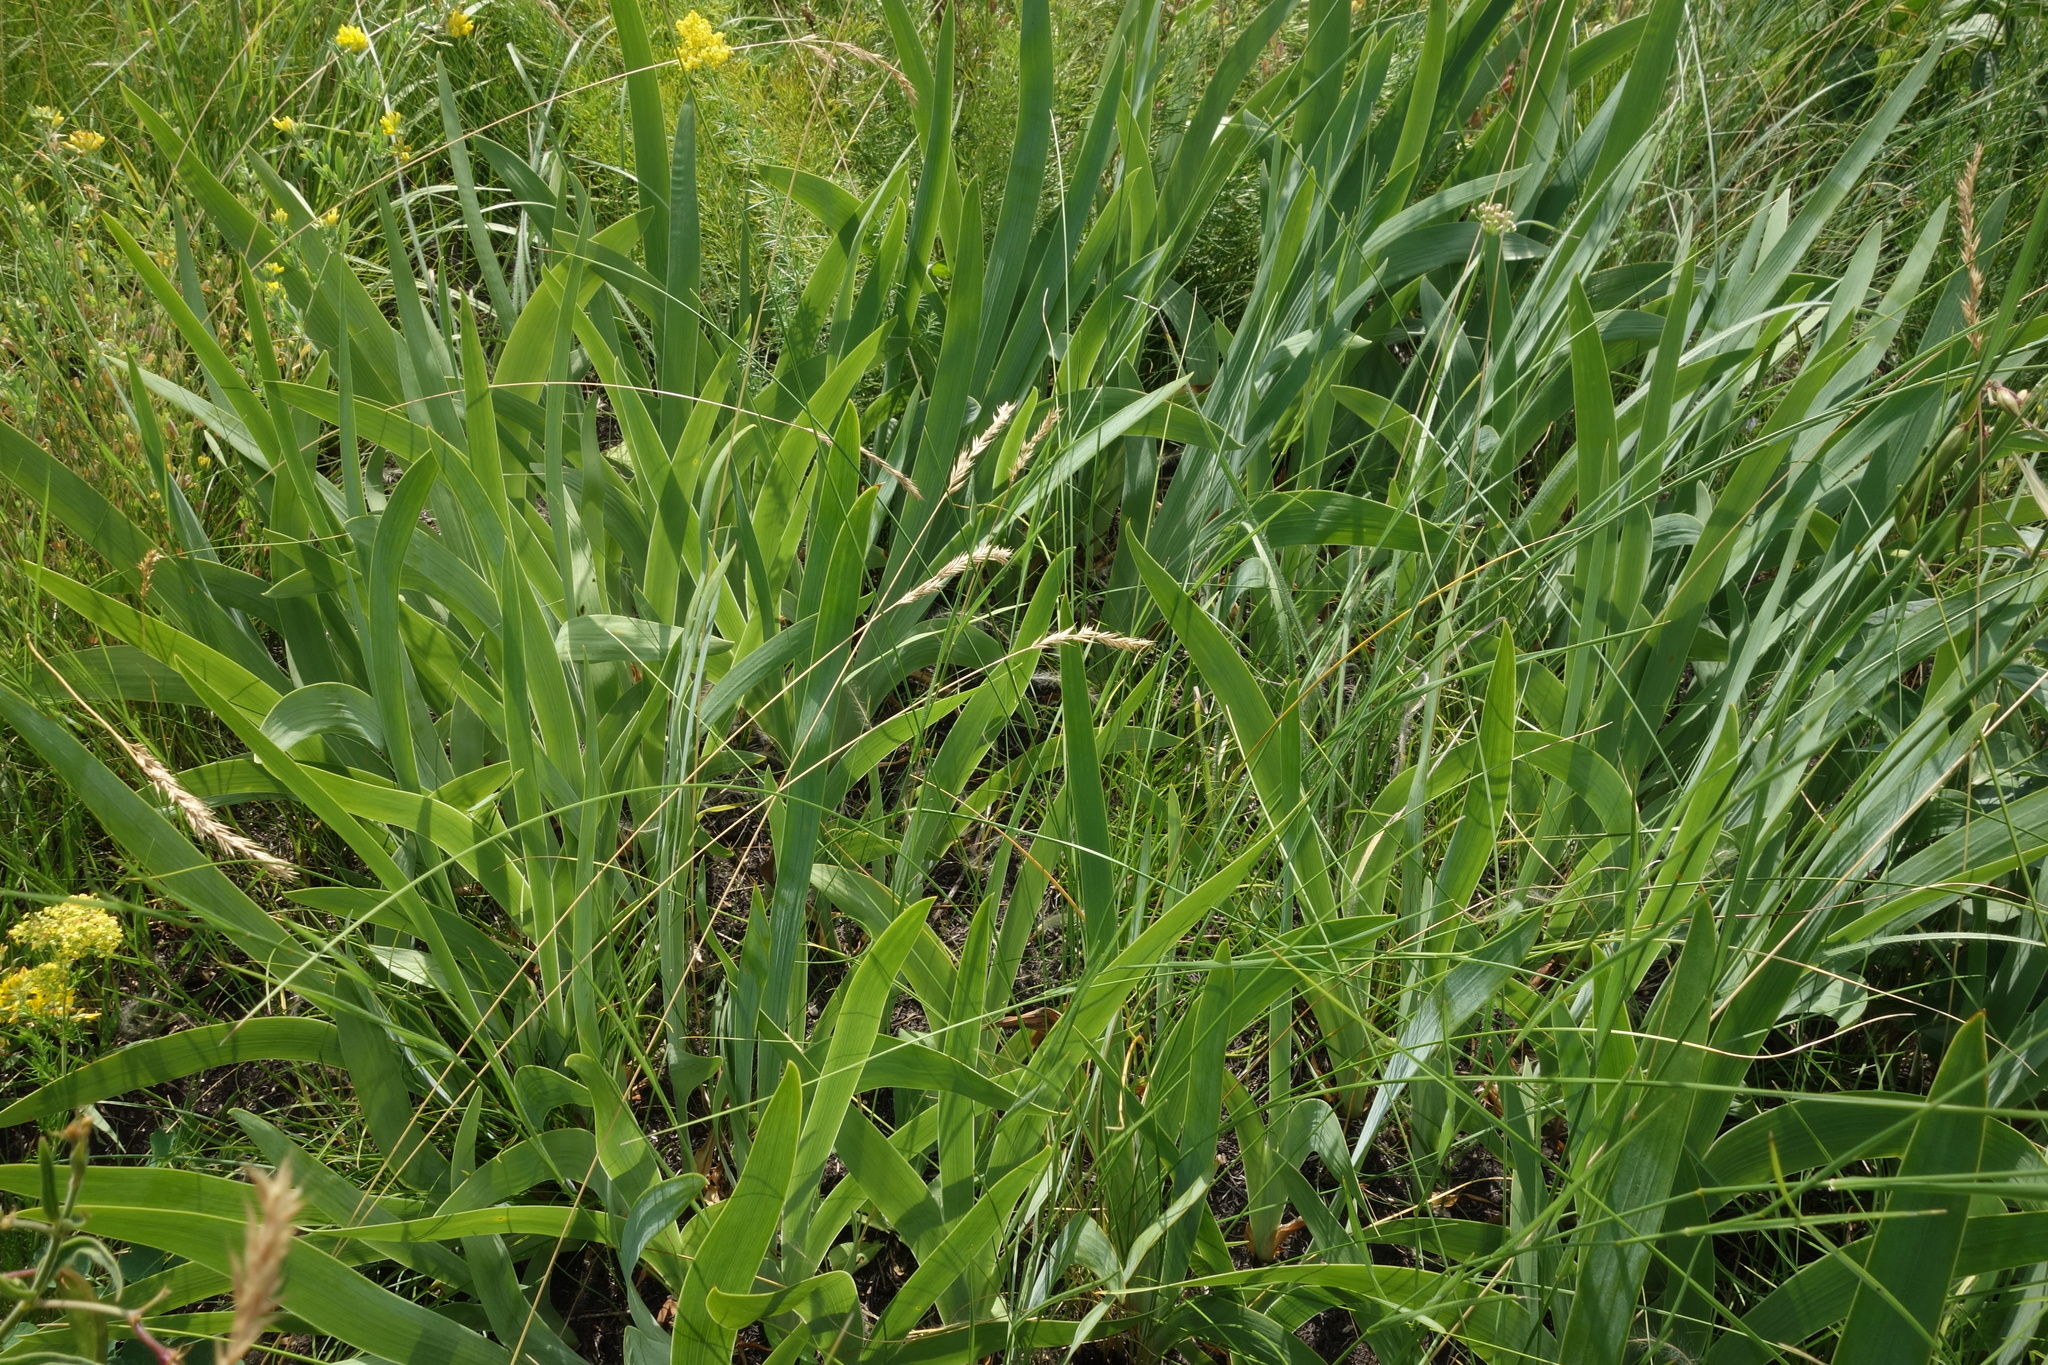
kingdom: Plantae
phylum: Tracheophyta
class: Liliopsida
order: Asparagales
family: Iridaceae
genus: Iris
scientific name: Iris aphylla
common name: Stool iris
